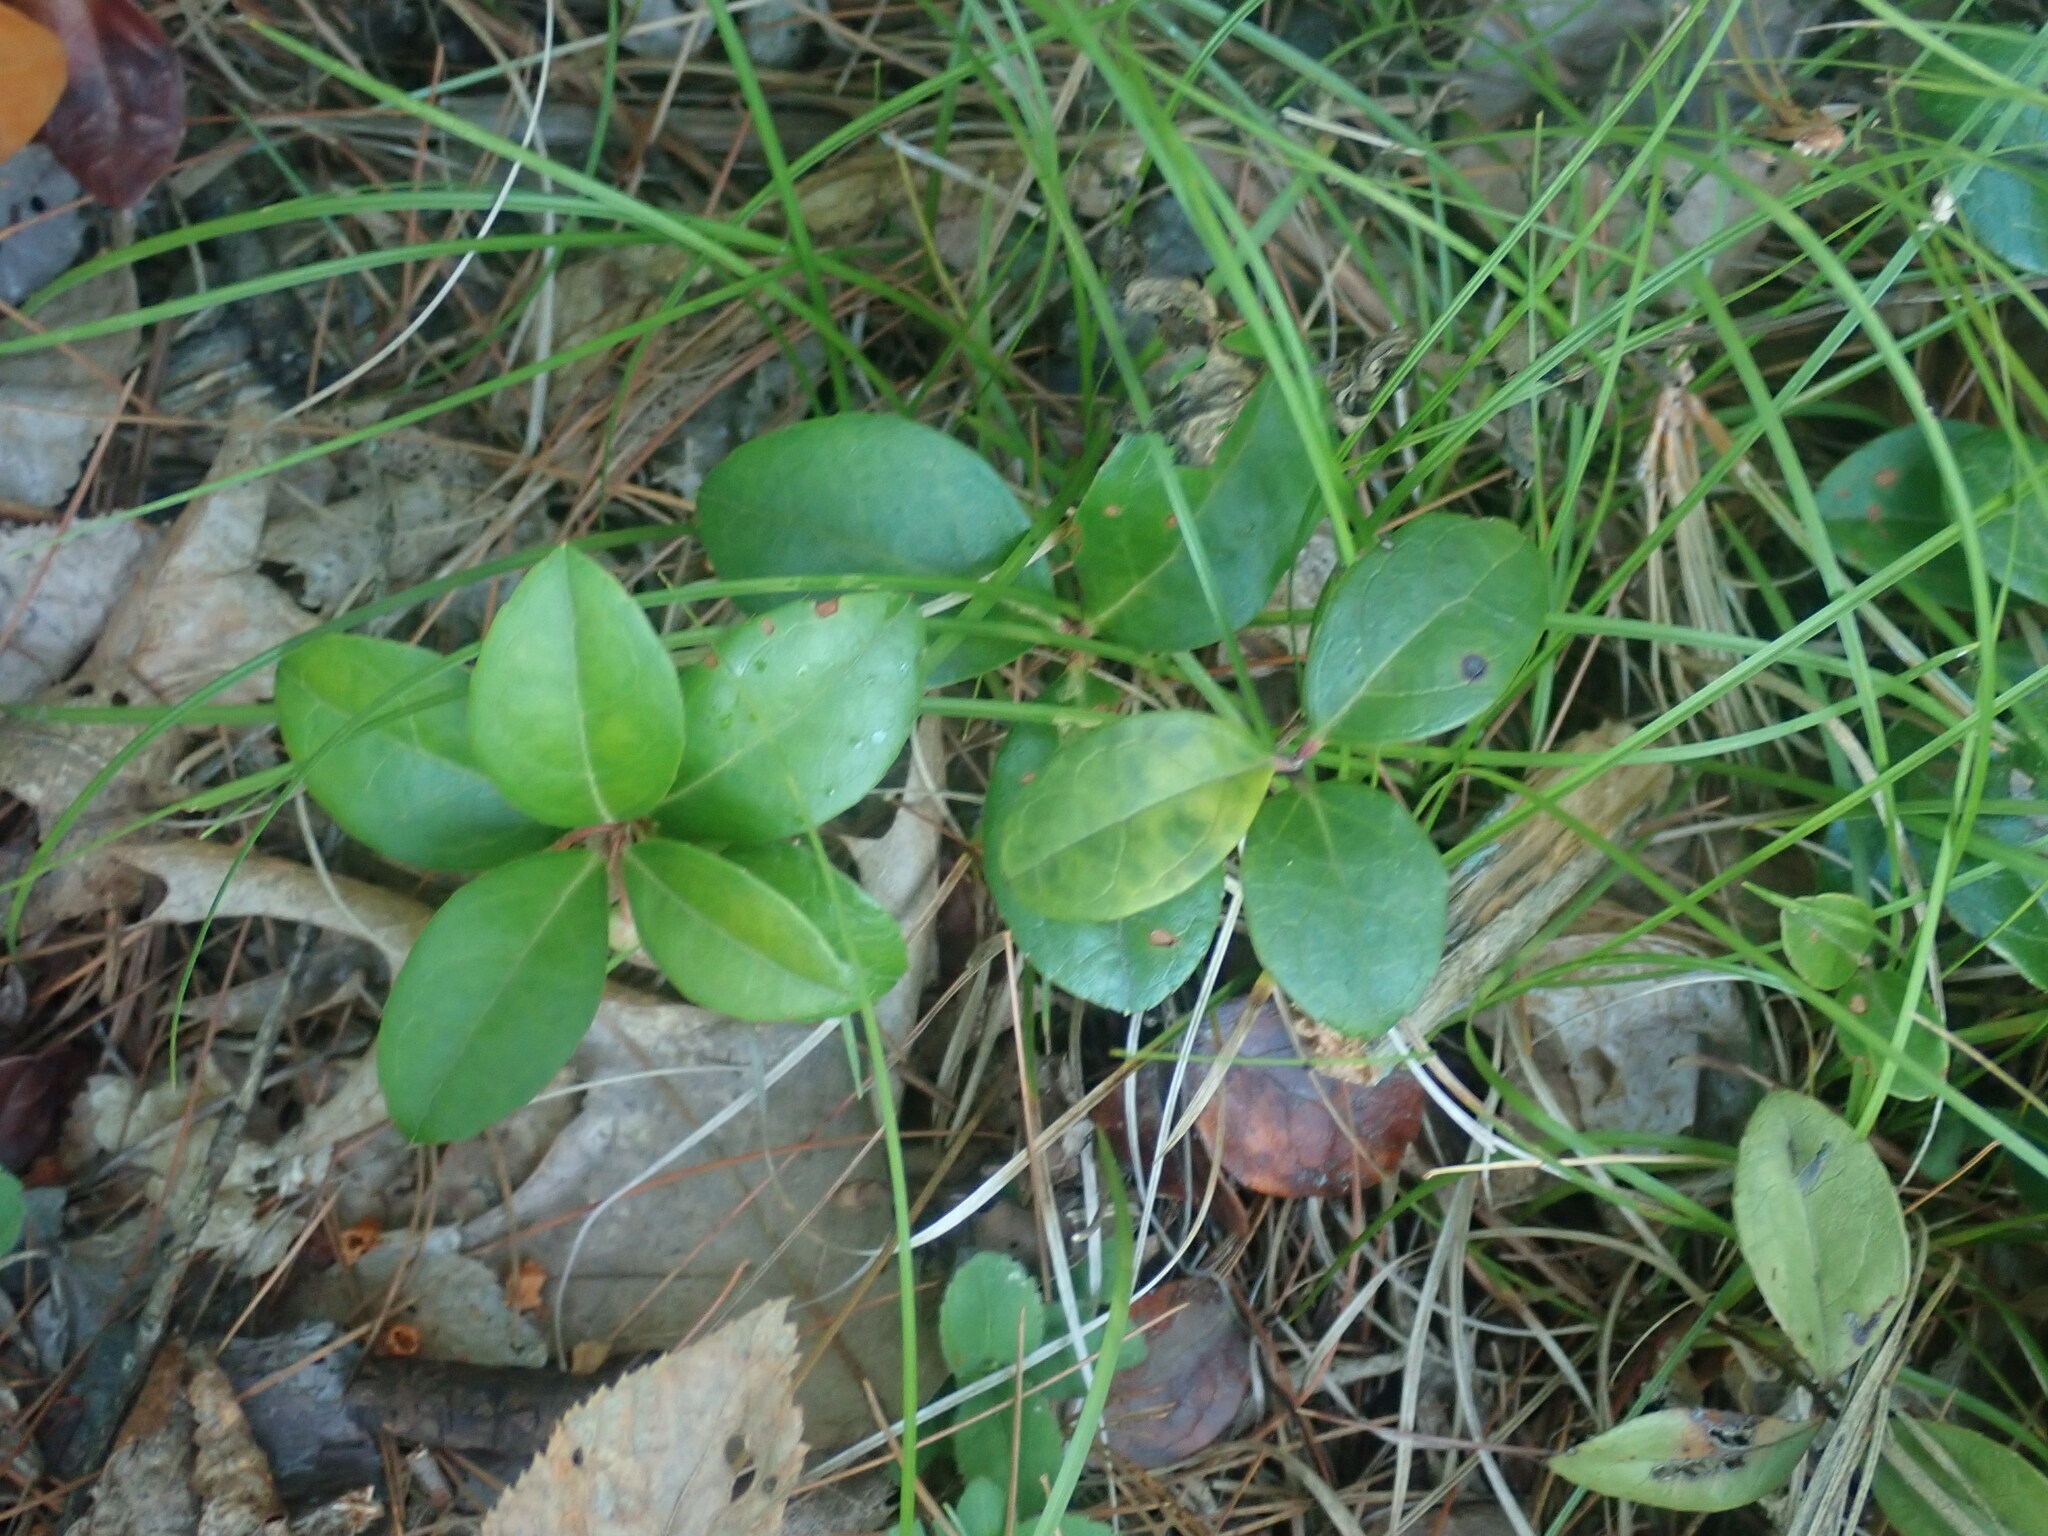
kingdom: Plantae
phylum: Tracheophyta
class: Magnoliopsida
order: Ericales
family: Ericaceae
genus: Gaultheria
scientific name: Gaultheria procumbens
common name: Checkerberry
